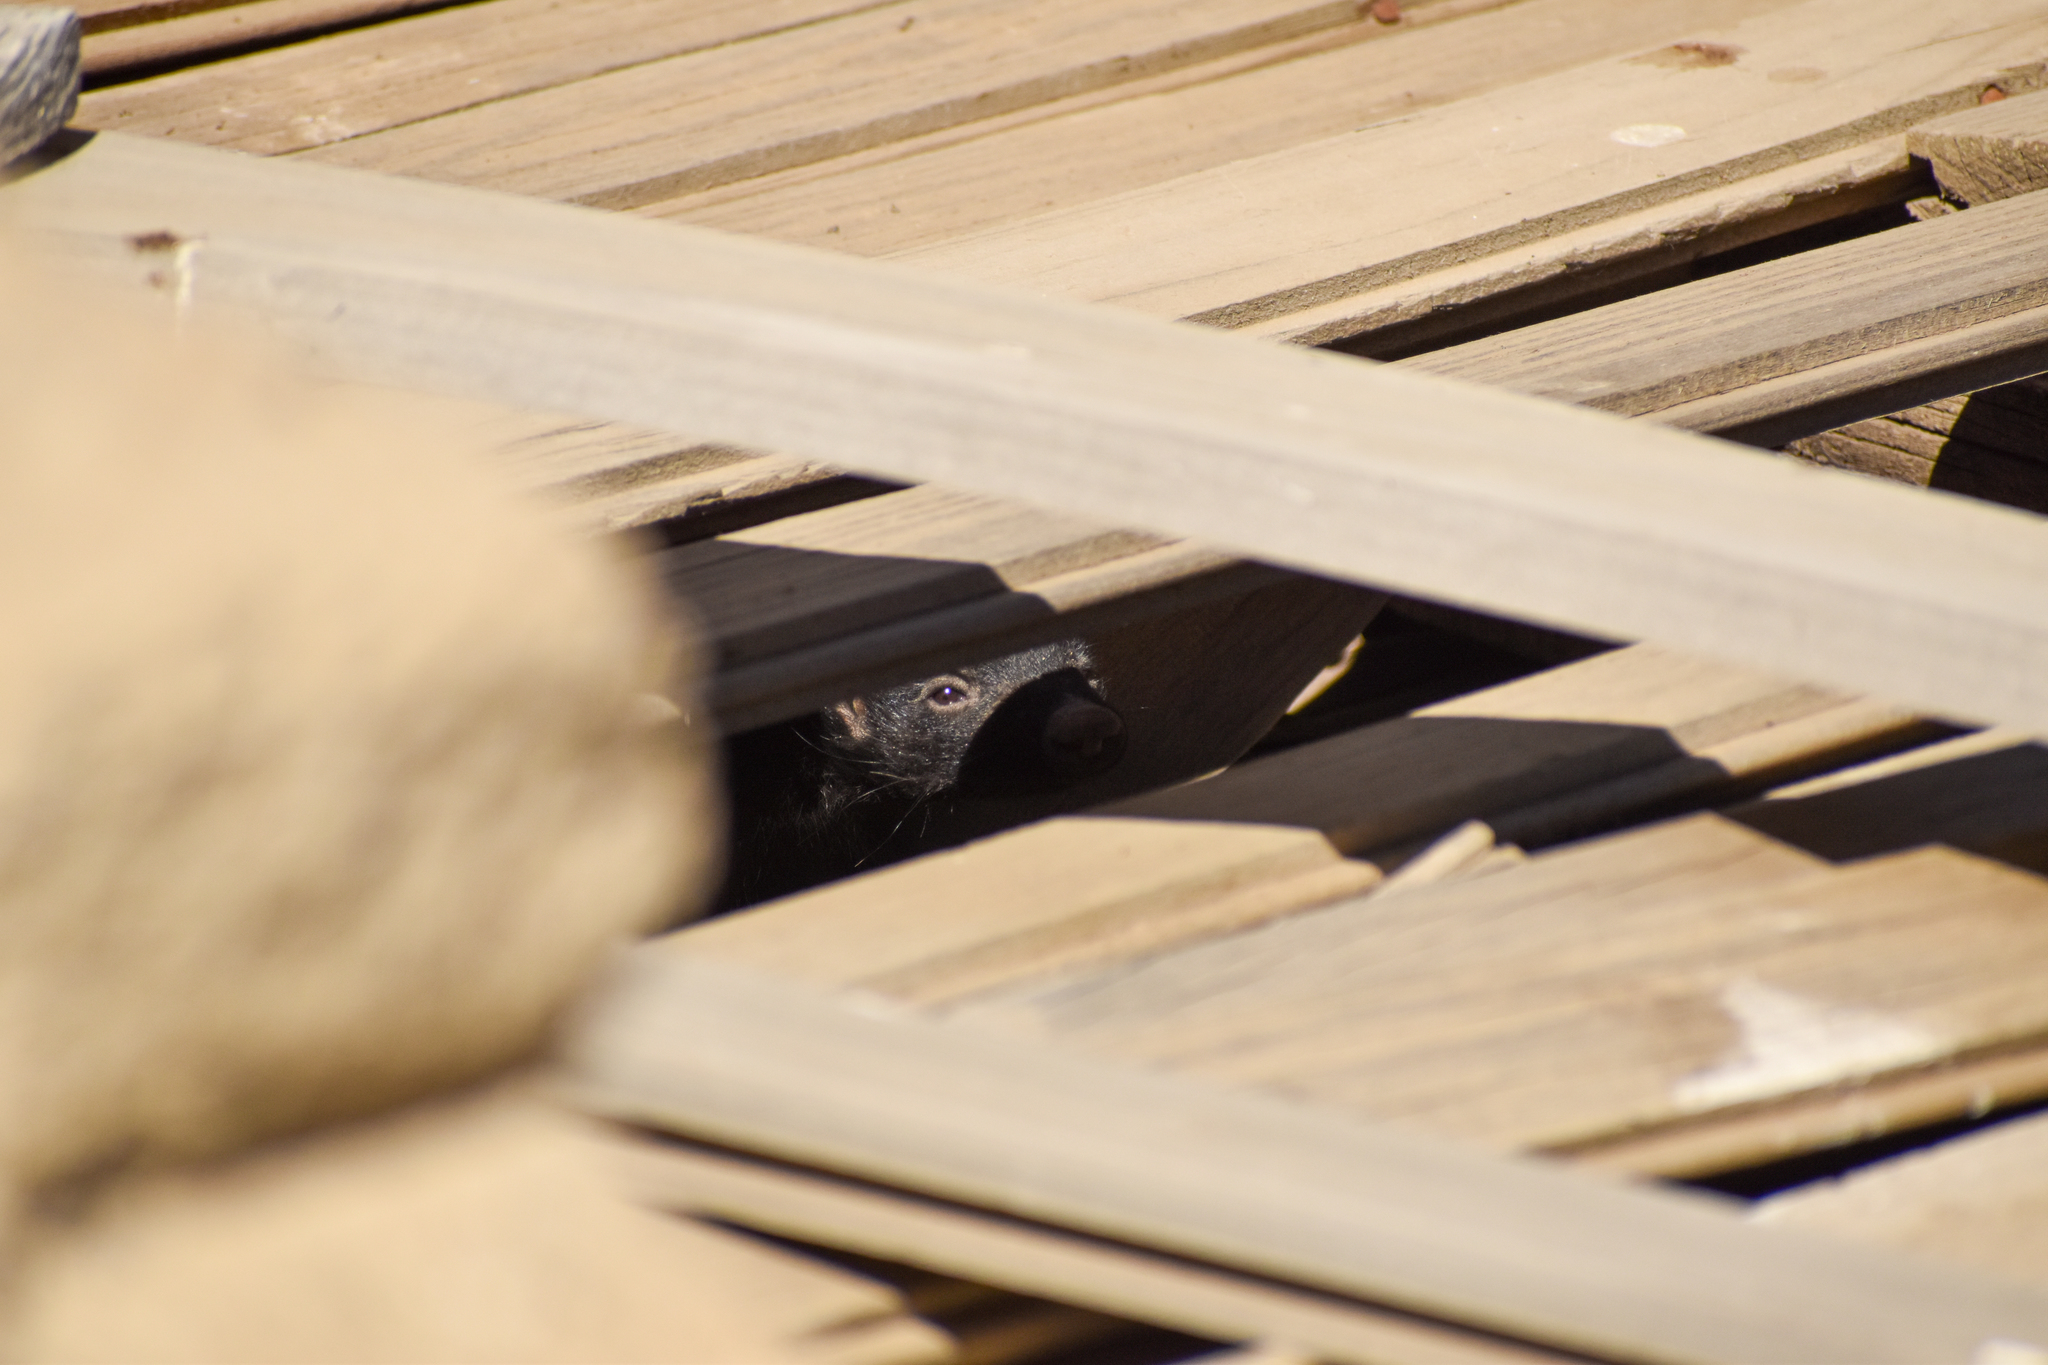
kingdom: Animalia
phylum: Chordata
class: Mammalia
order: Carnivora
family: Mephitidae
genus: Conepatus
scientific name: Conepatus chinga
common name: Molina's hog-nosed skunk
